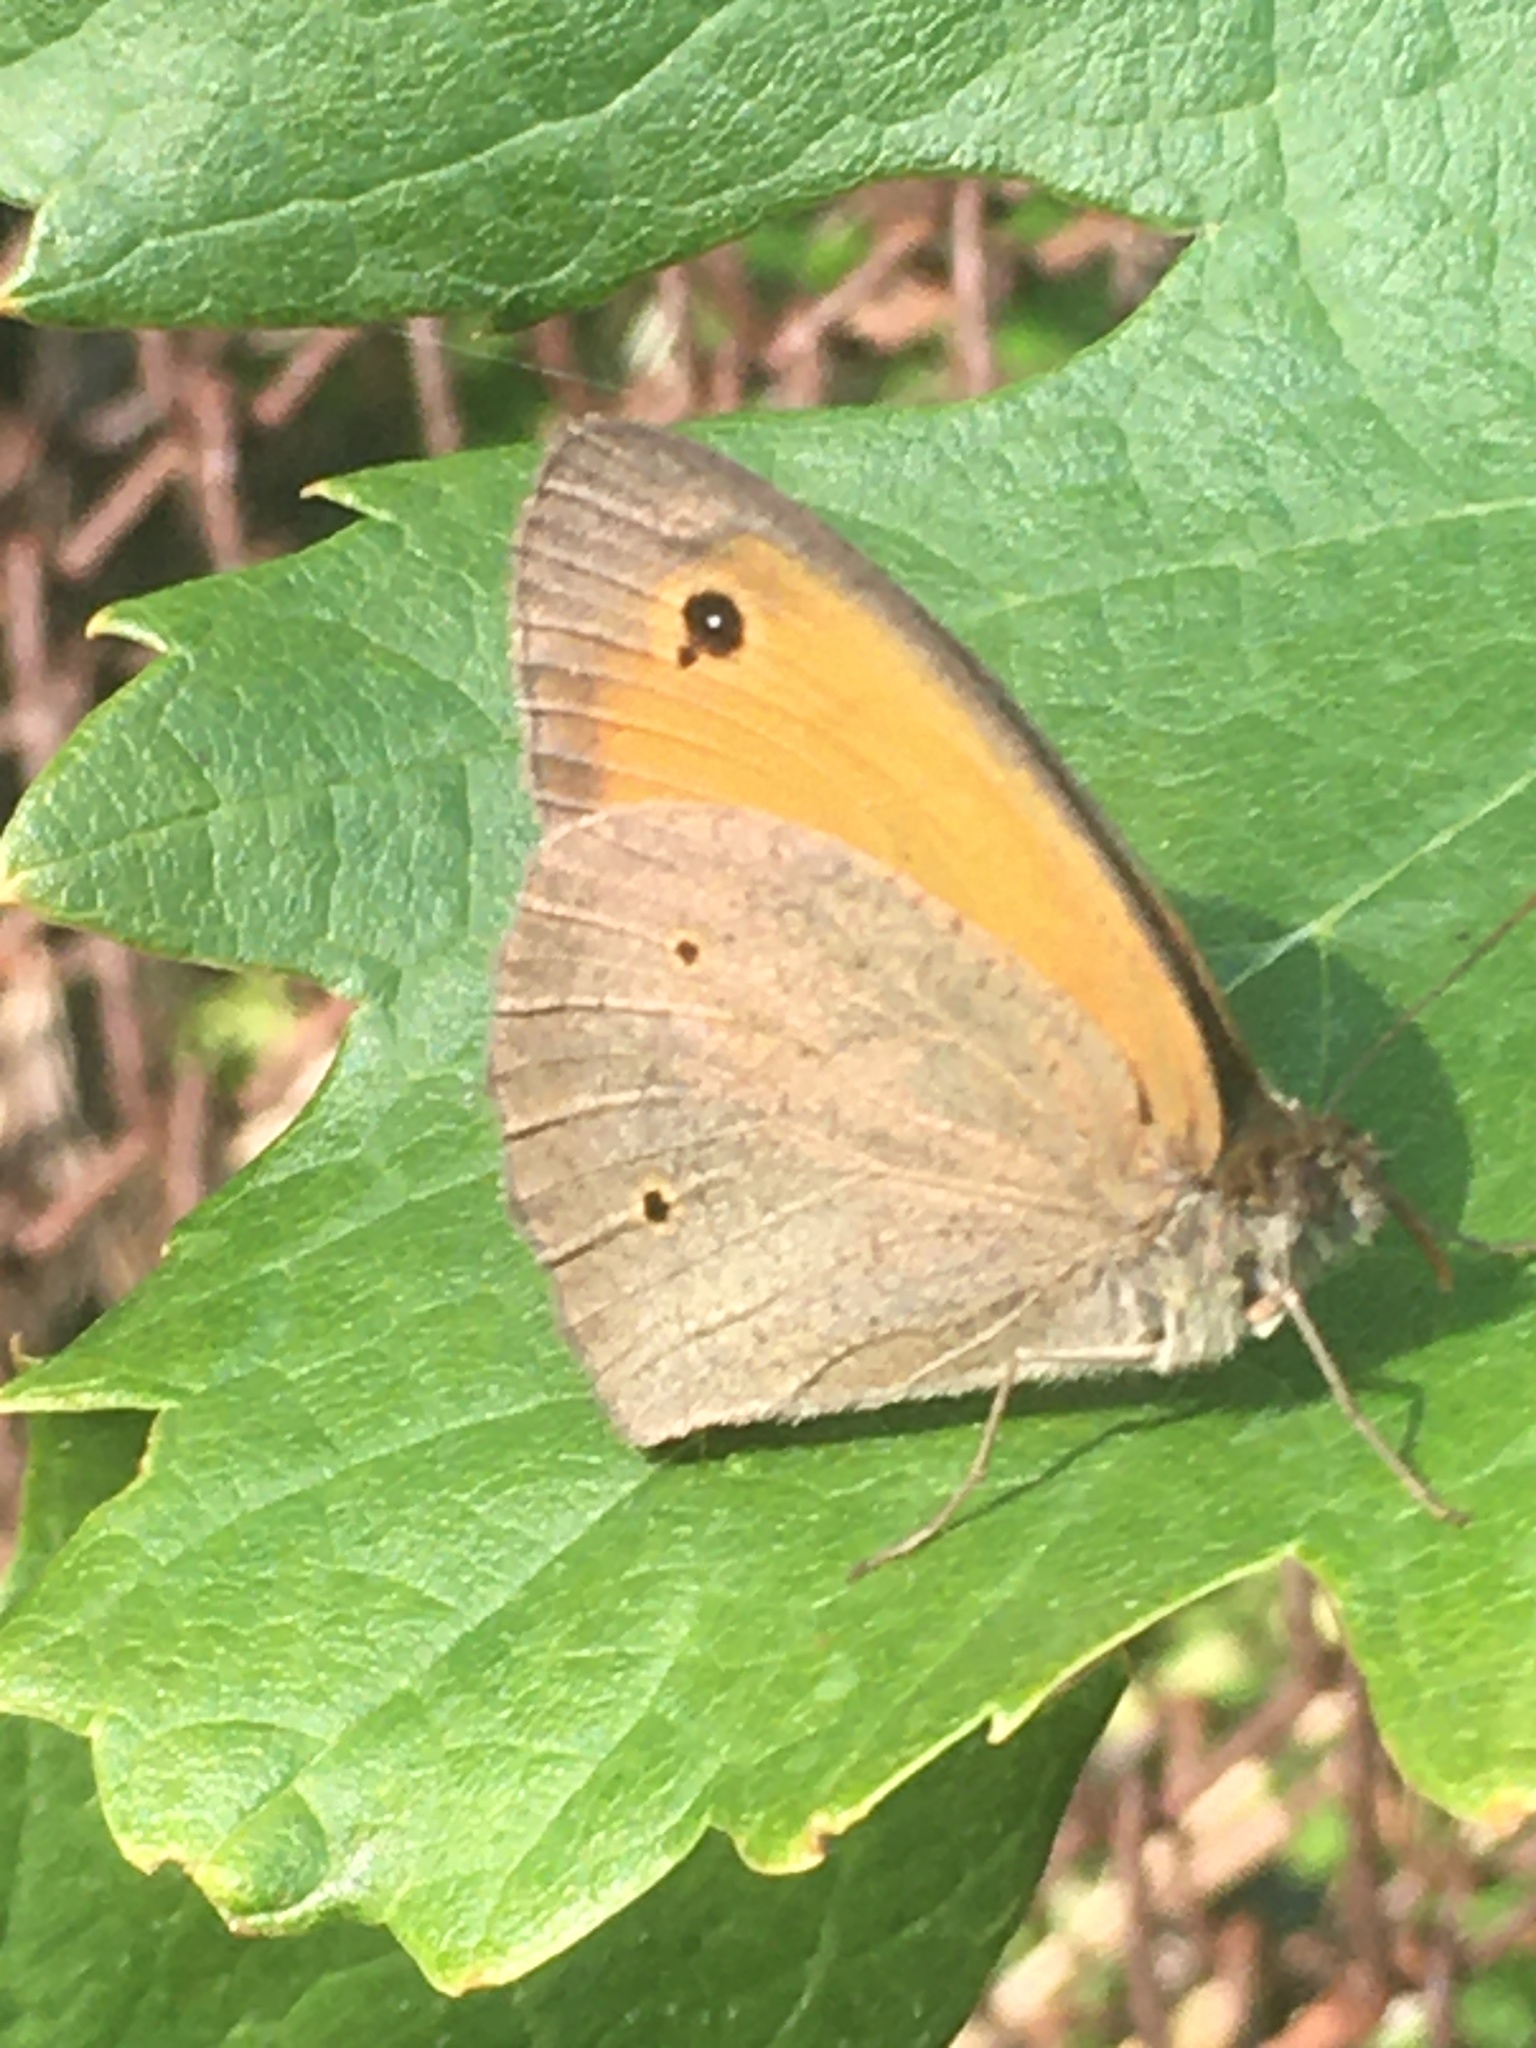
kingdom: Animalia
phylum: Arthropoda
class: Insecta
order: Lepidoptera
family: Nymphalidae
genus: Maniola
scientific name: Maniola jurtina
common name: Meadow brown
